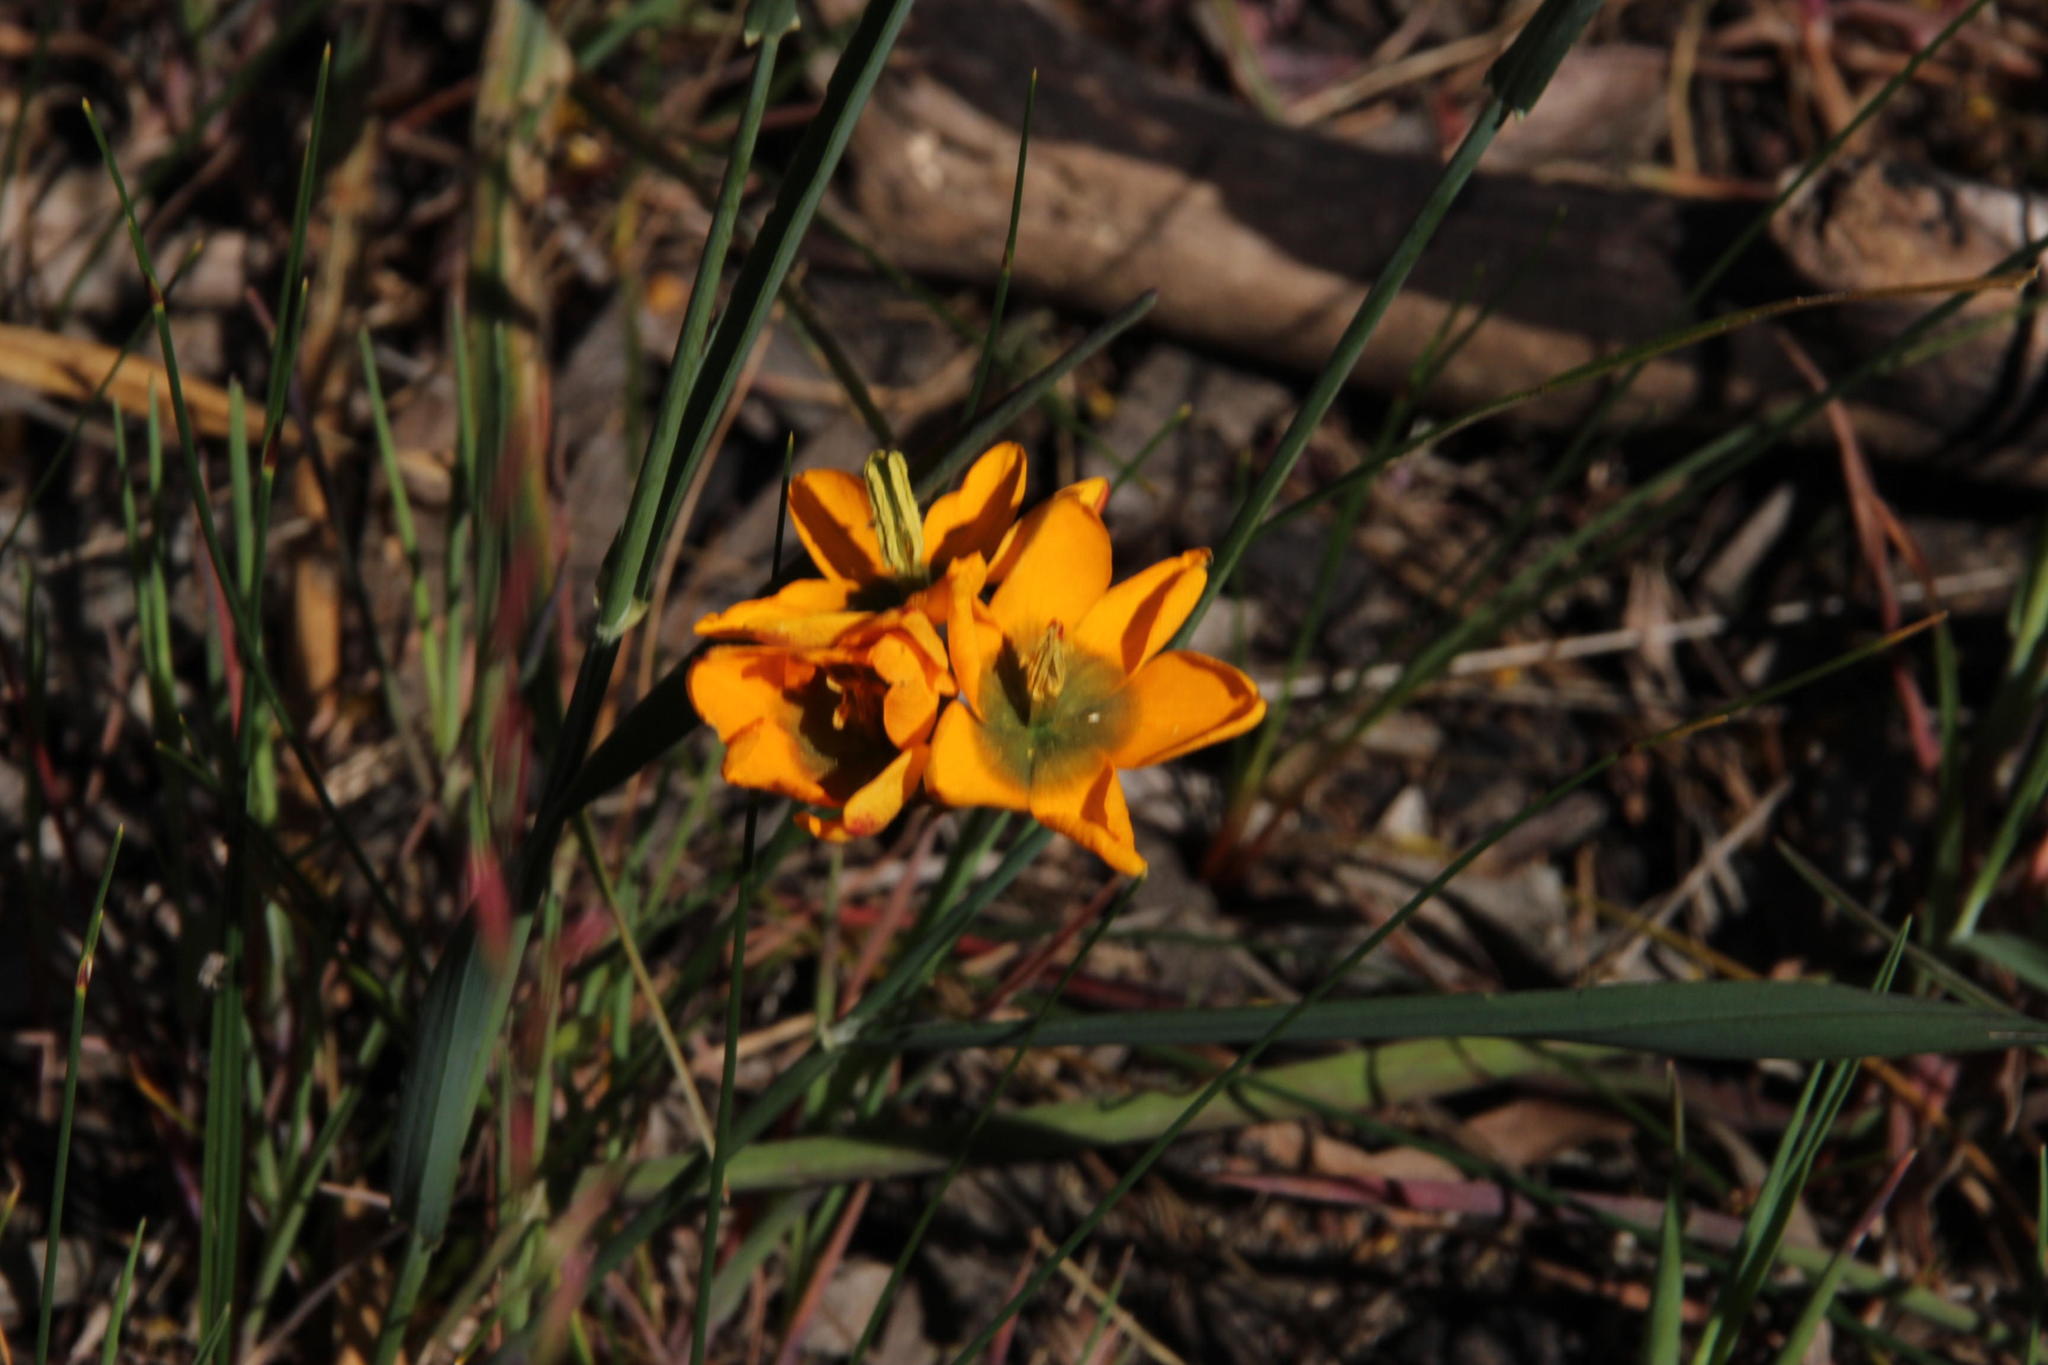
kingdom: Plantae
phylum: Tracheophyta
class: Liliopsida
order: Asparagales
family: Iridaceae
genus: Ixia
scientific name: Ixia dubia
